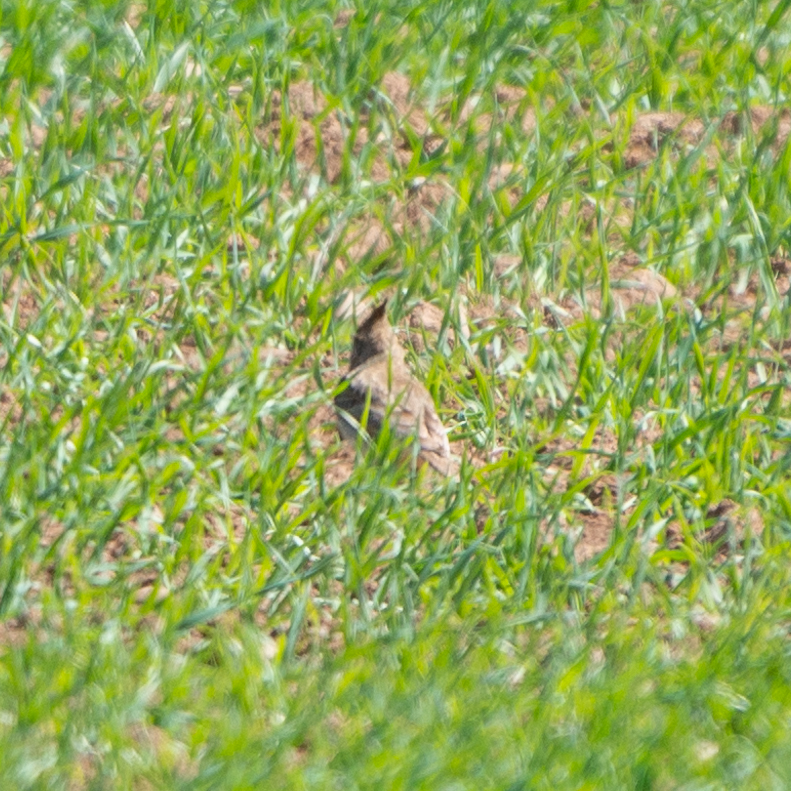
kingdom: Animalia
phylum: Chordata
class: Aves
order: Passeriformes
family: Alaudidae
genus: Galerida
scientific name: Galerida cristata
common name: Crested lark
